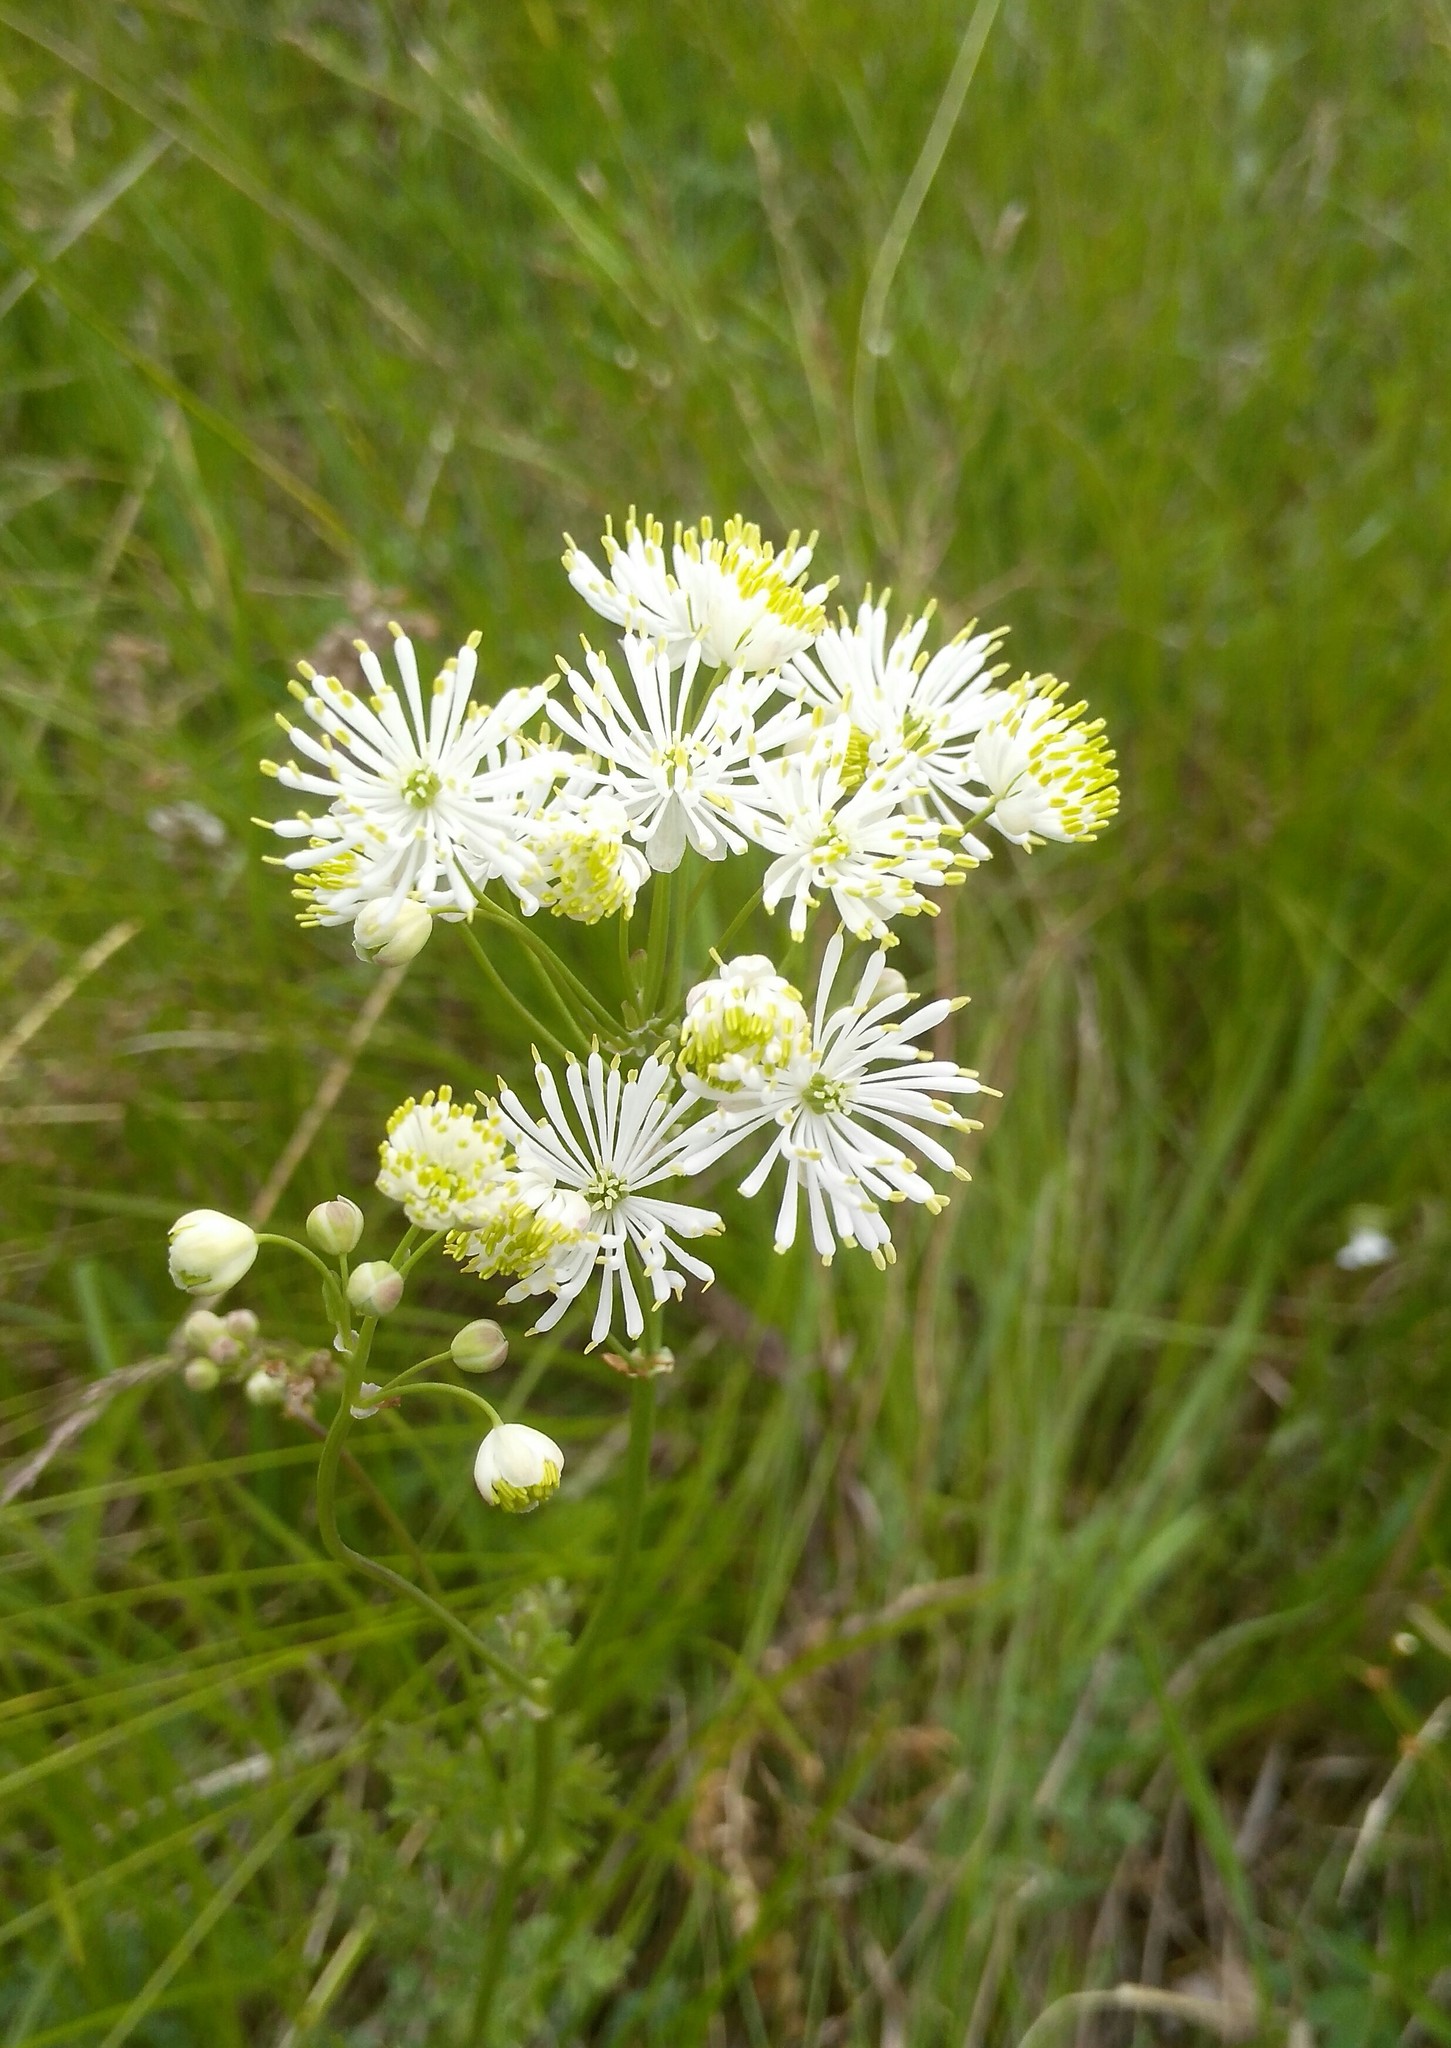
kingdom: Plantae
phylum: Tracheophyta
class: Magnoliopsida
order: Ranunculales
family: Ranunculaceae
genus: Thalictrum
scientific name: Thalictrum petaloideum
